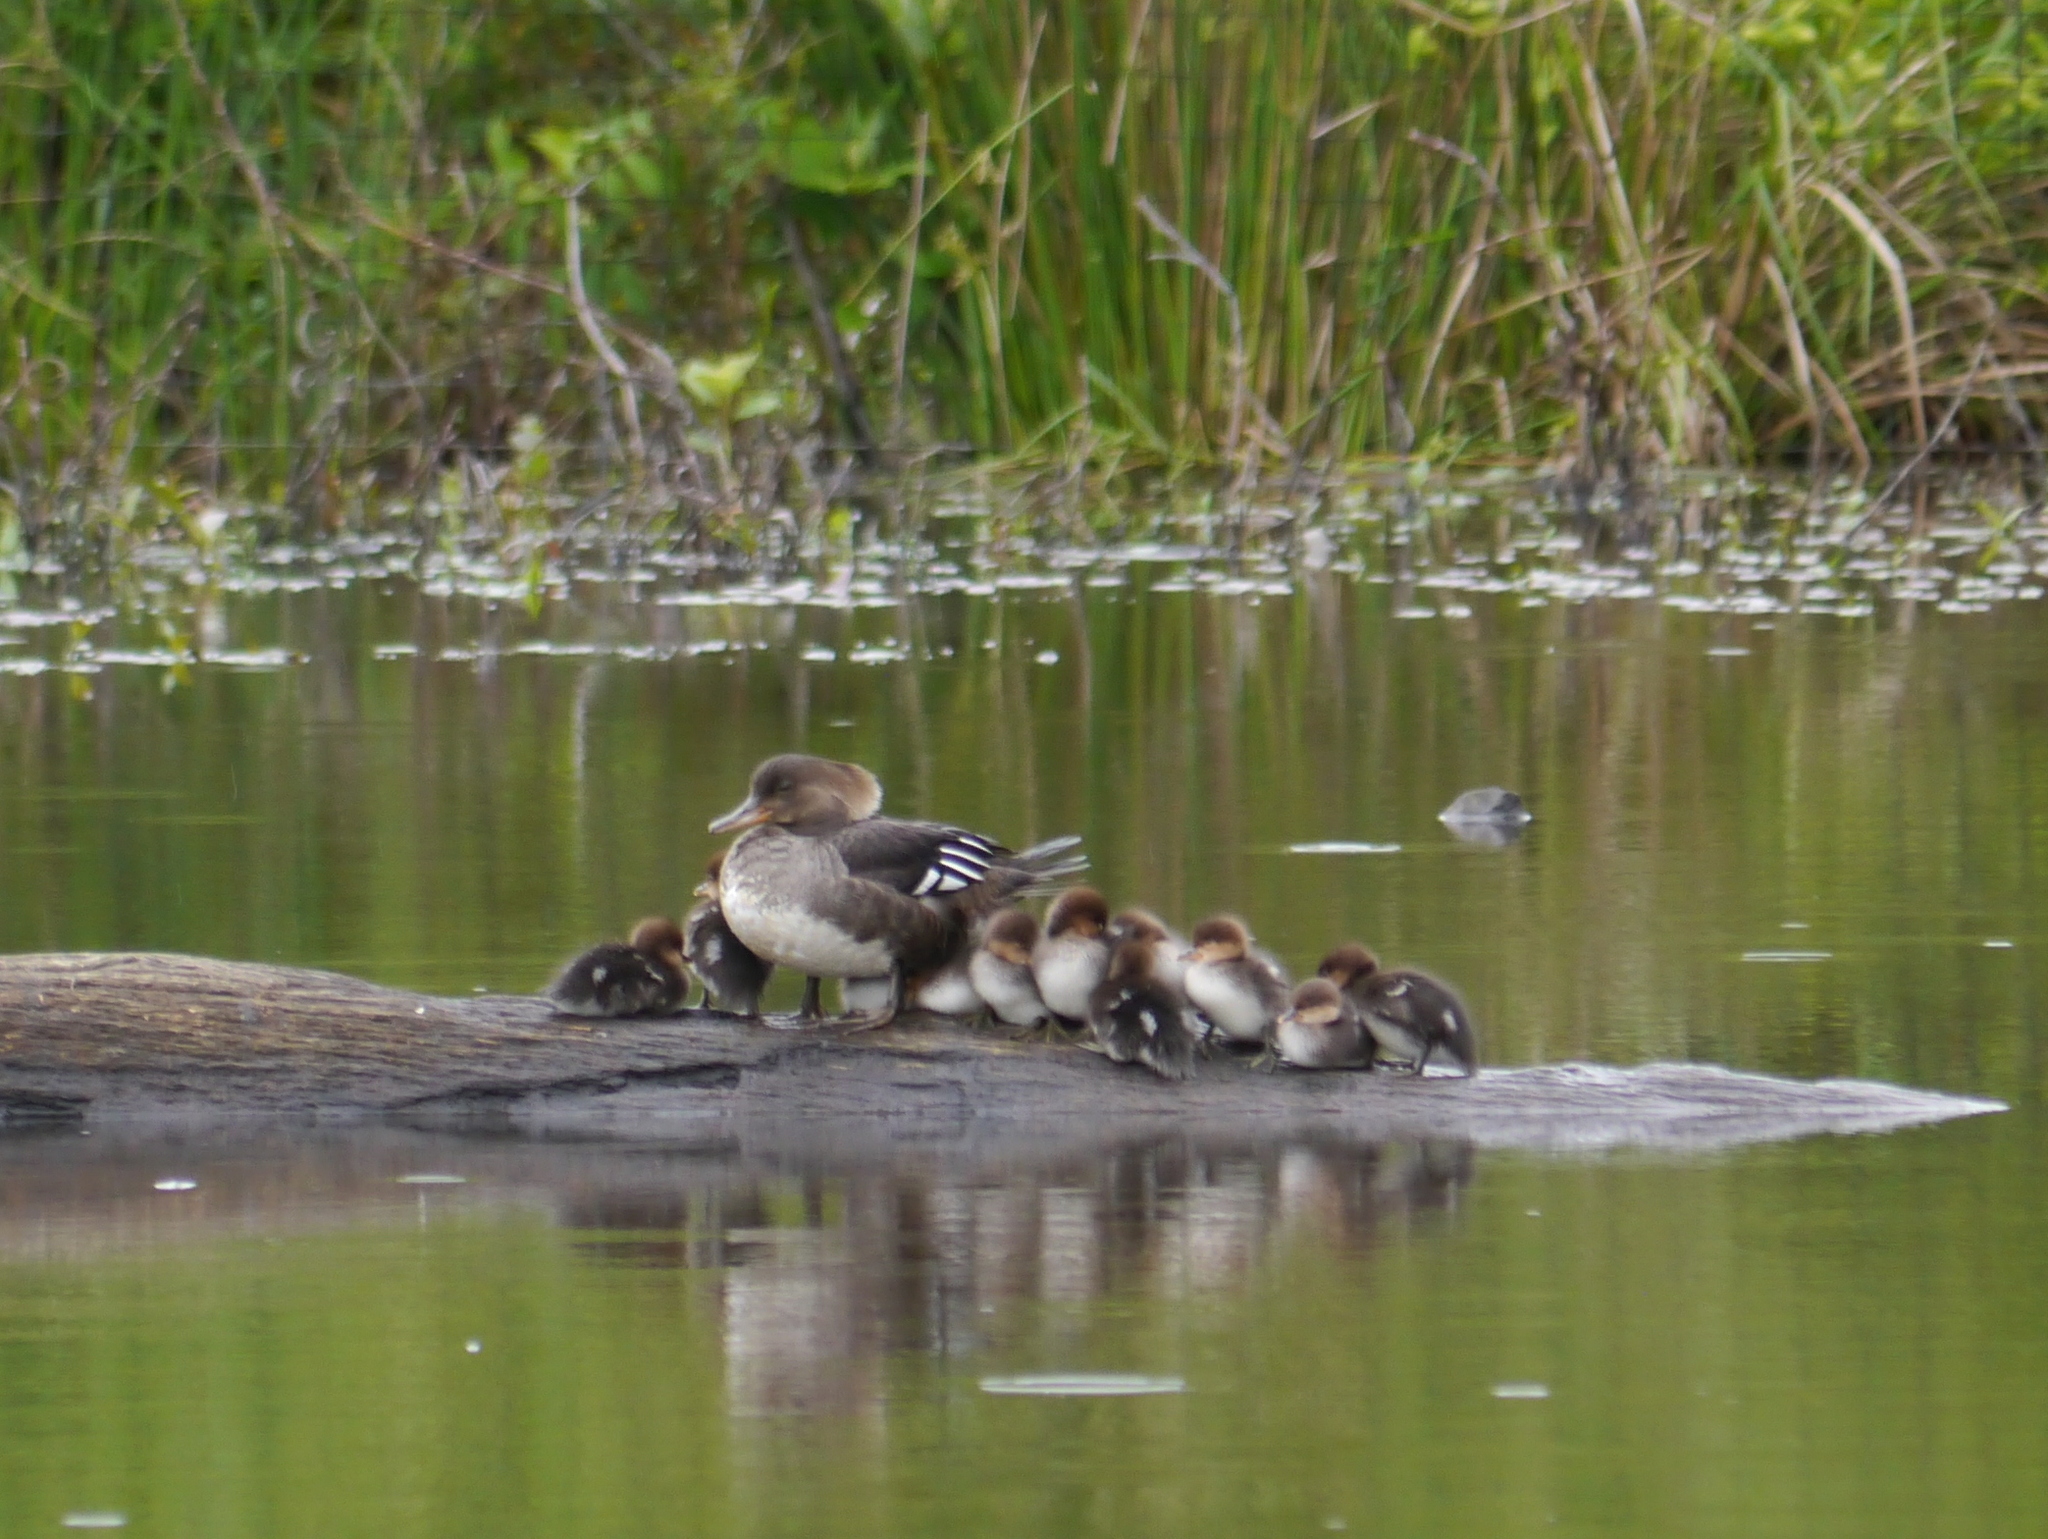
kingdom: Animalia
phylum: Chordata
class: Aves
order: Anseriformes
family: Anatidae
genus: Lophodytes
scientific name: Lophodytes cucullatus
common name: Hooded merganser
